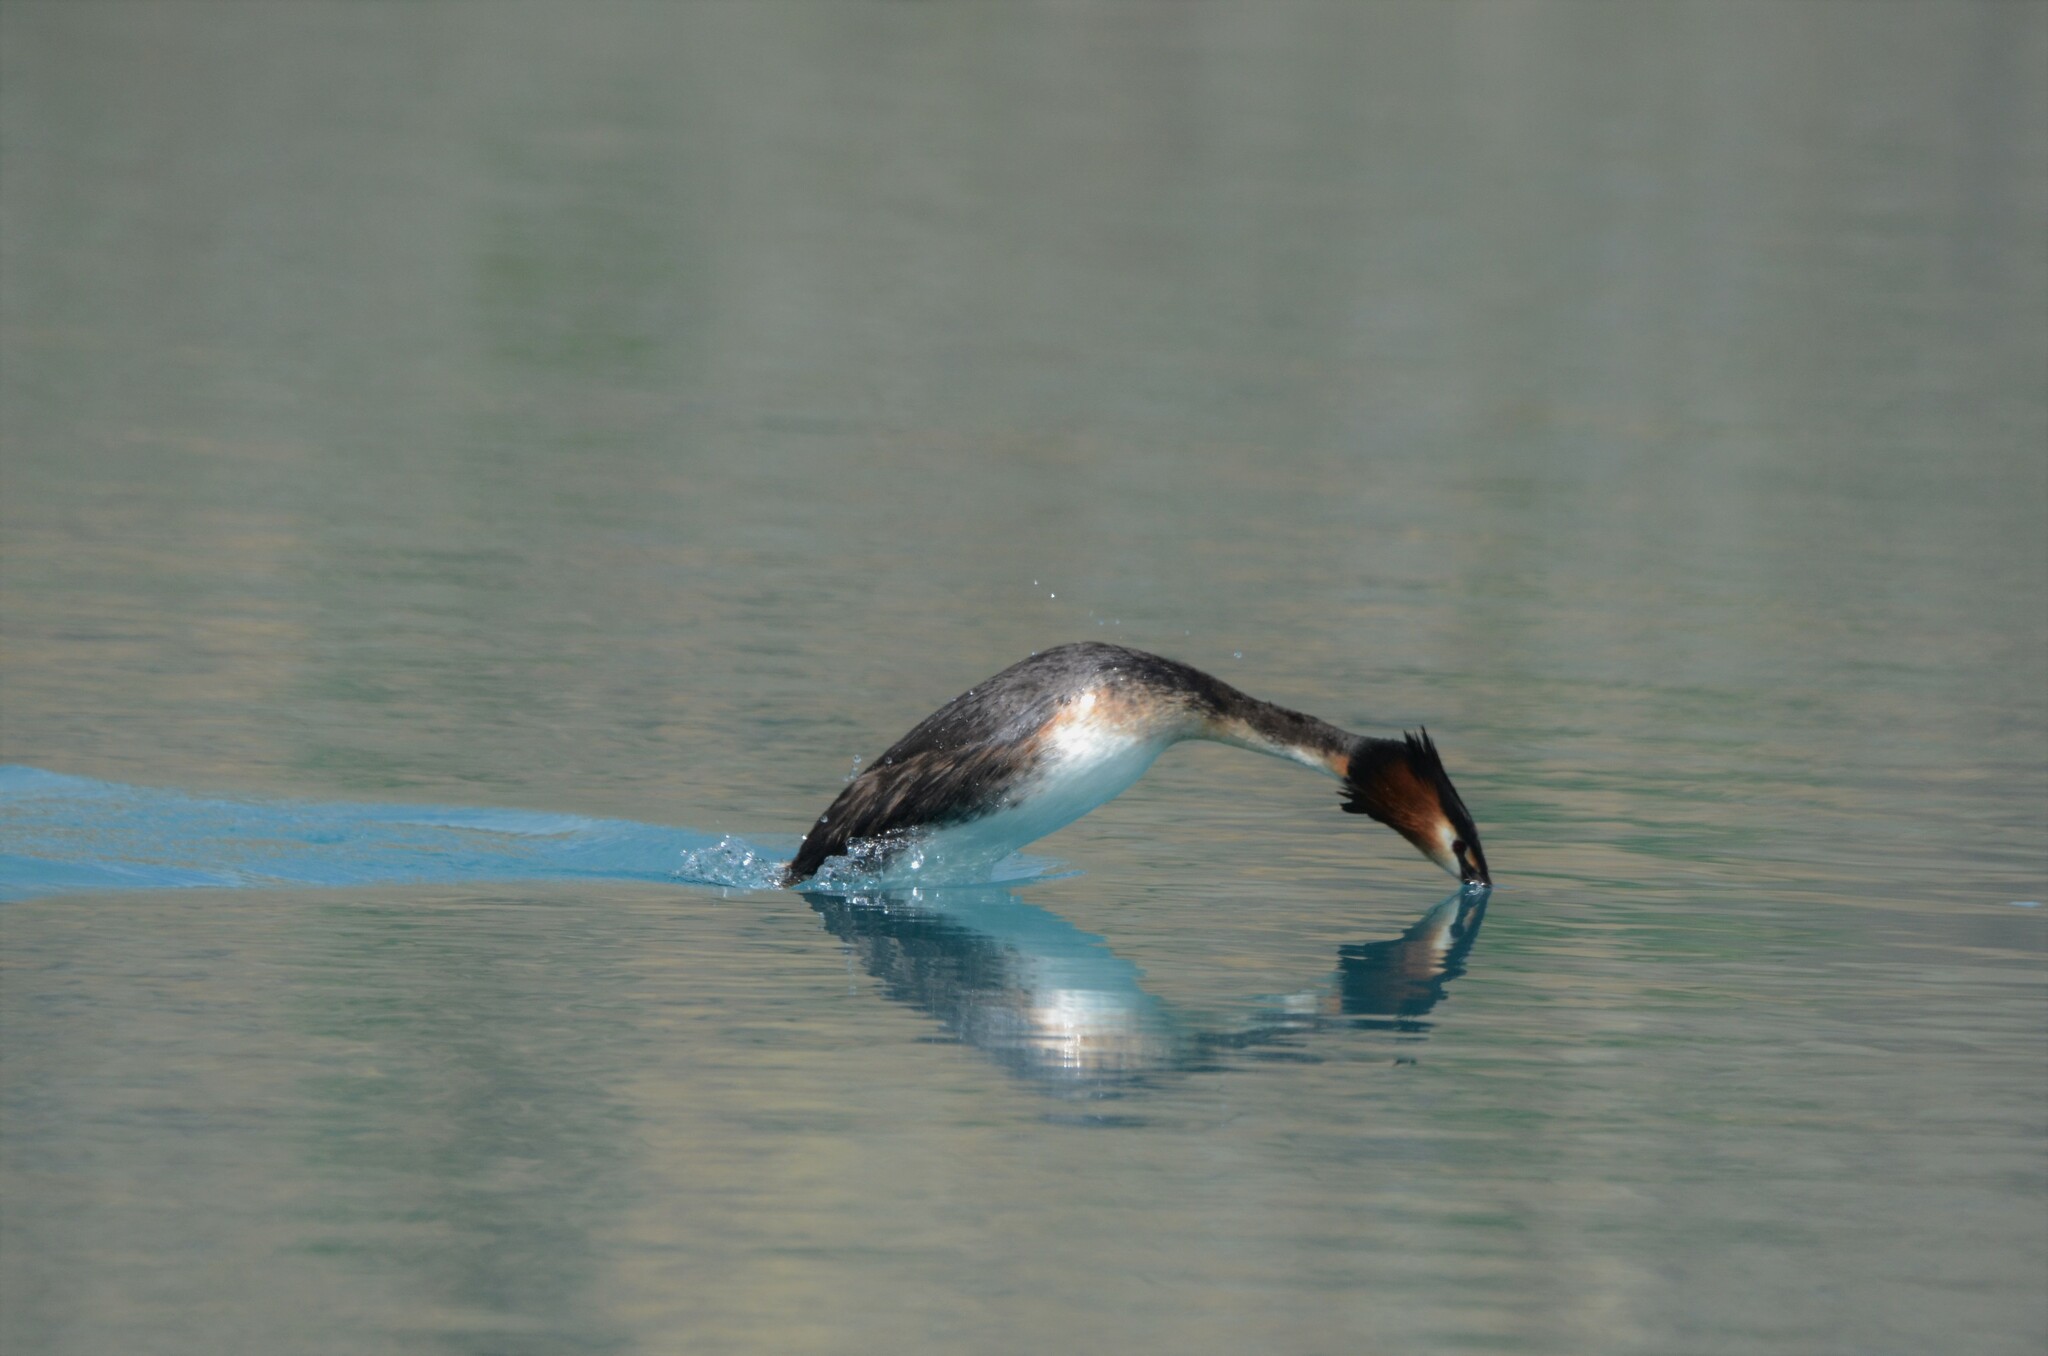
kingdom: Animalia
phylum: Chordata
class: Aves
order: Podicipediformes
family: Podicipedidae
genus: Podiceps
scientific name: Podiceps cristatus
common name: Great crested grebe
